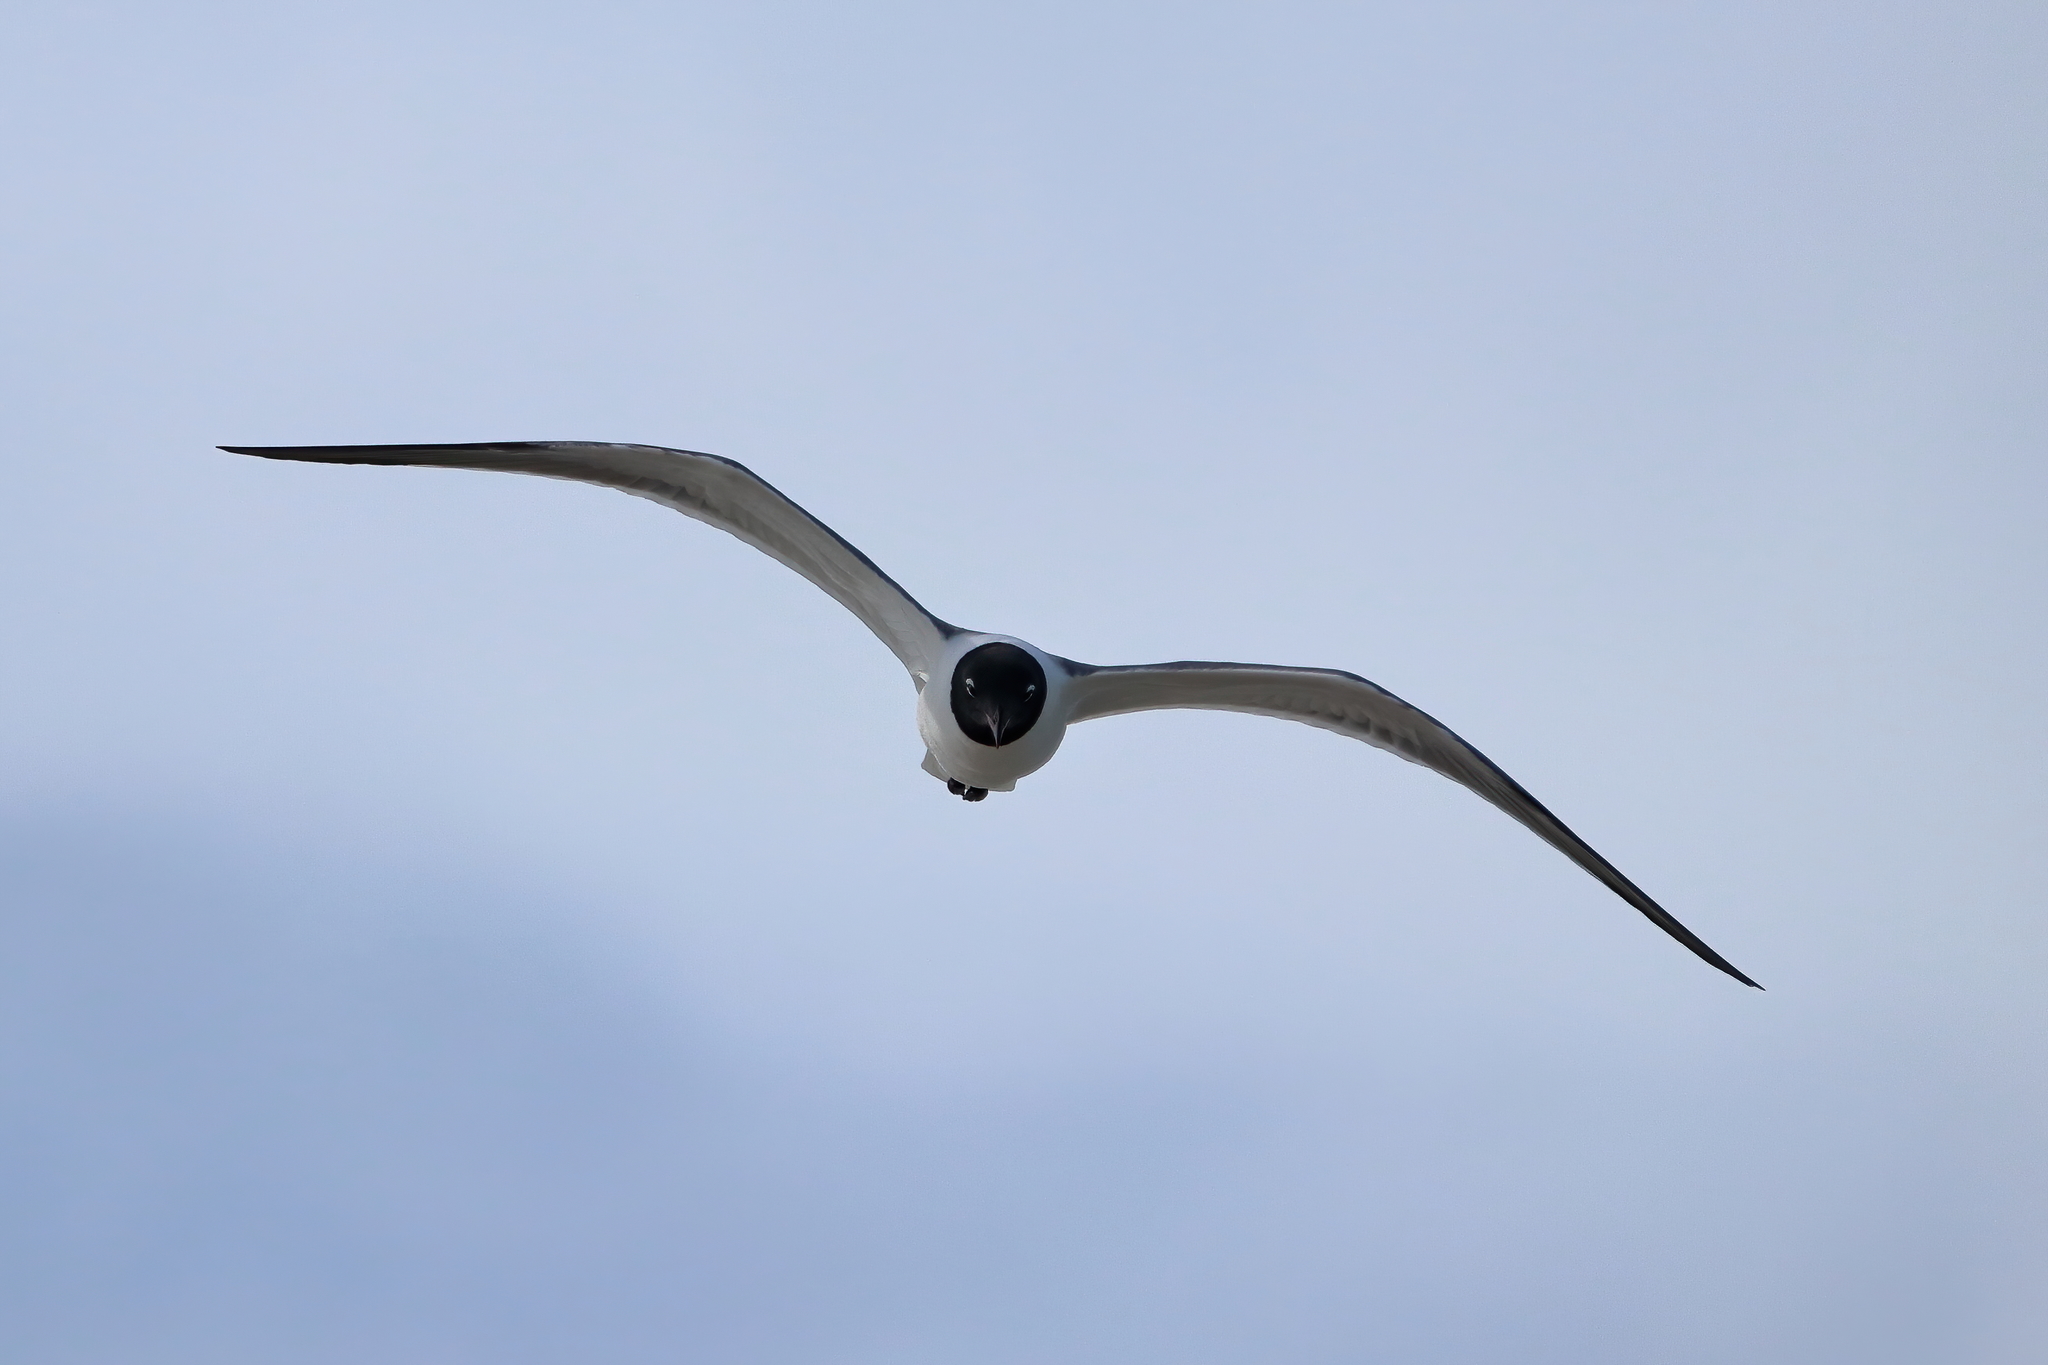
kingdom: Animalia
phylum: Chordata
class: Aves
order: Charadriiformes
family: Laridae
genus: Leucophaeus
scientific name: Leucophaeus atricilla
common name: Laughing gull
